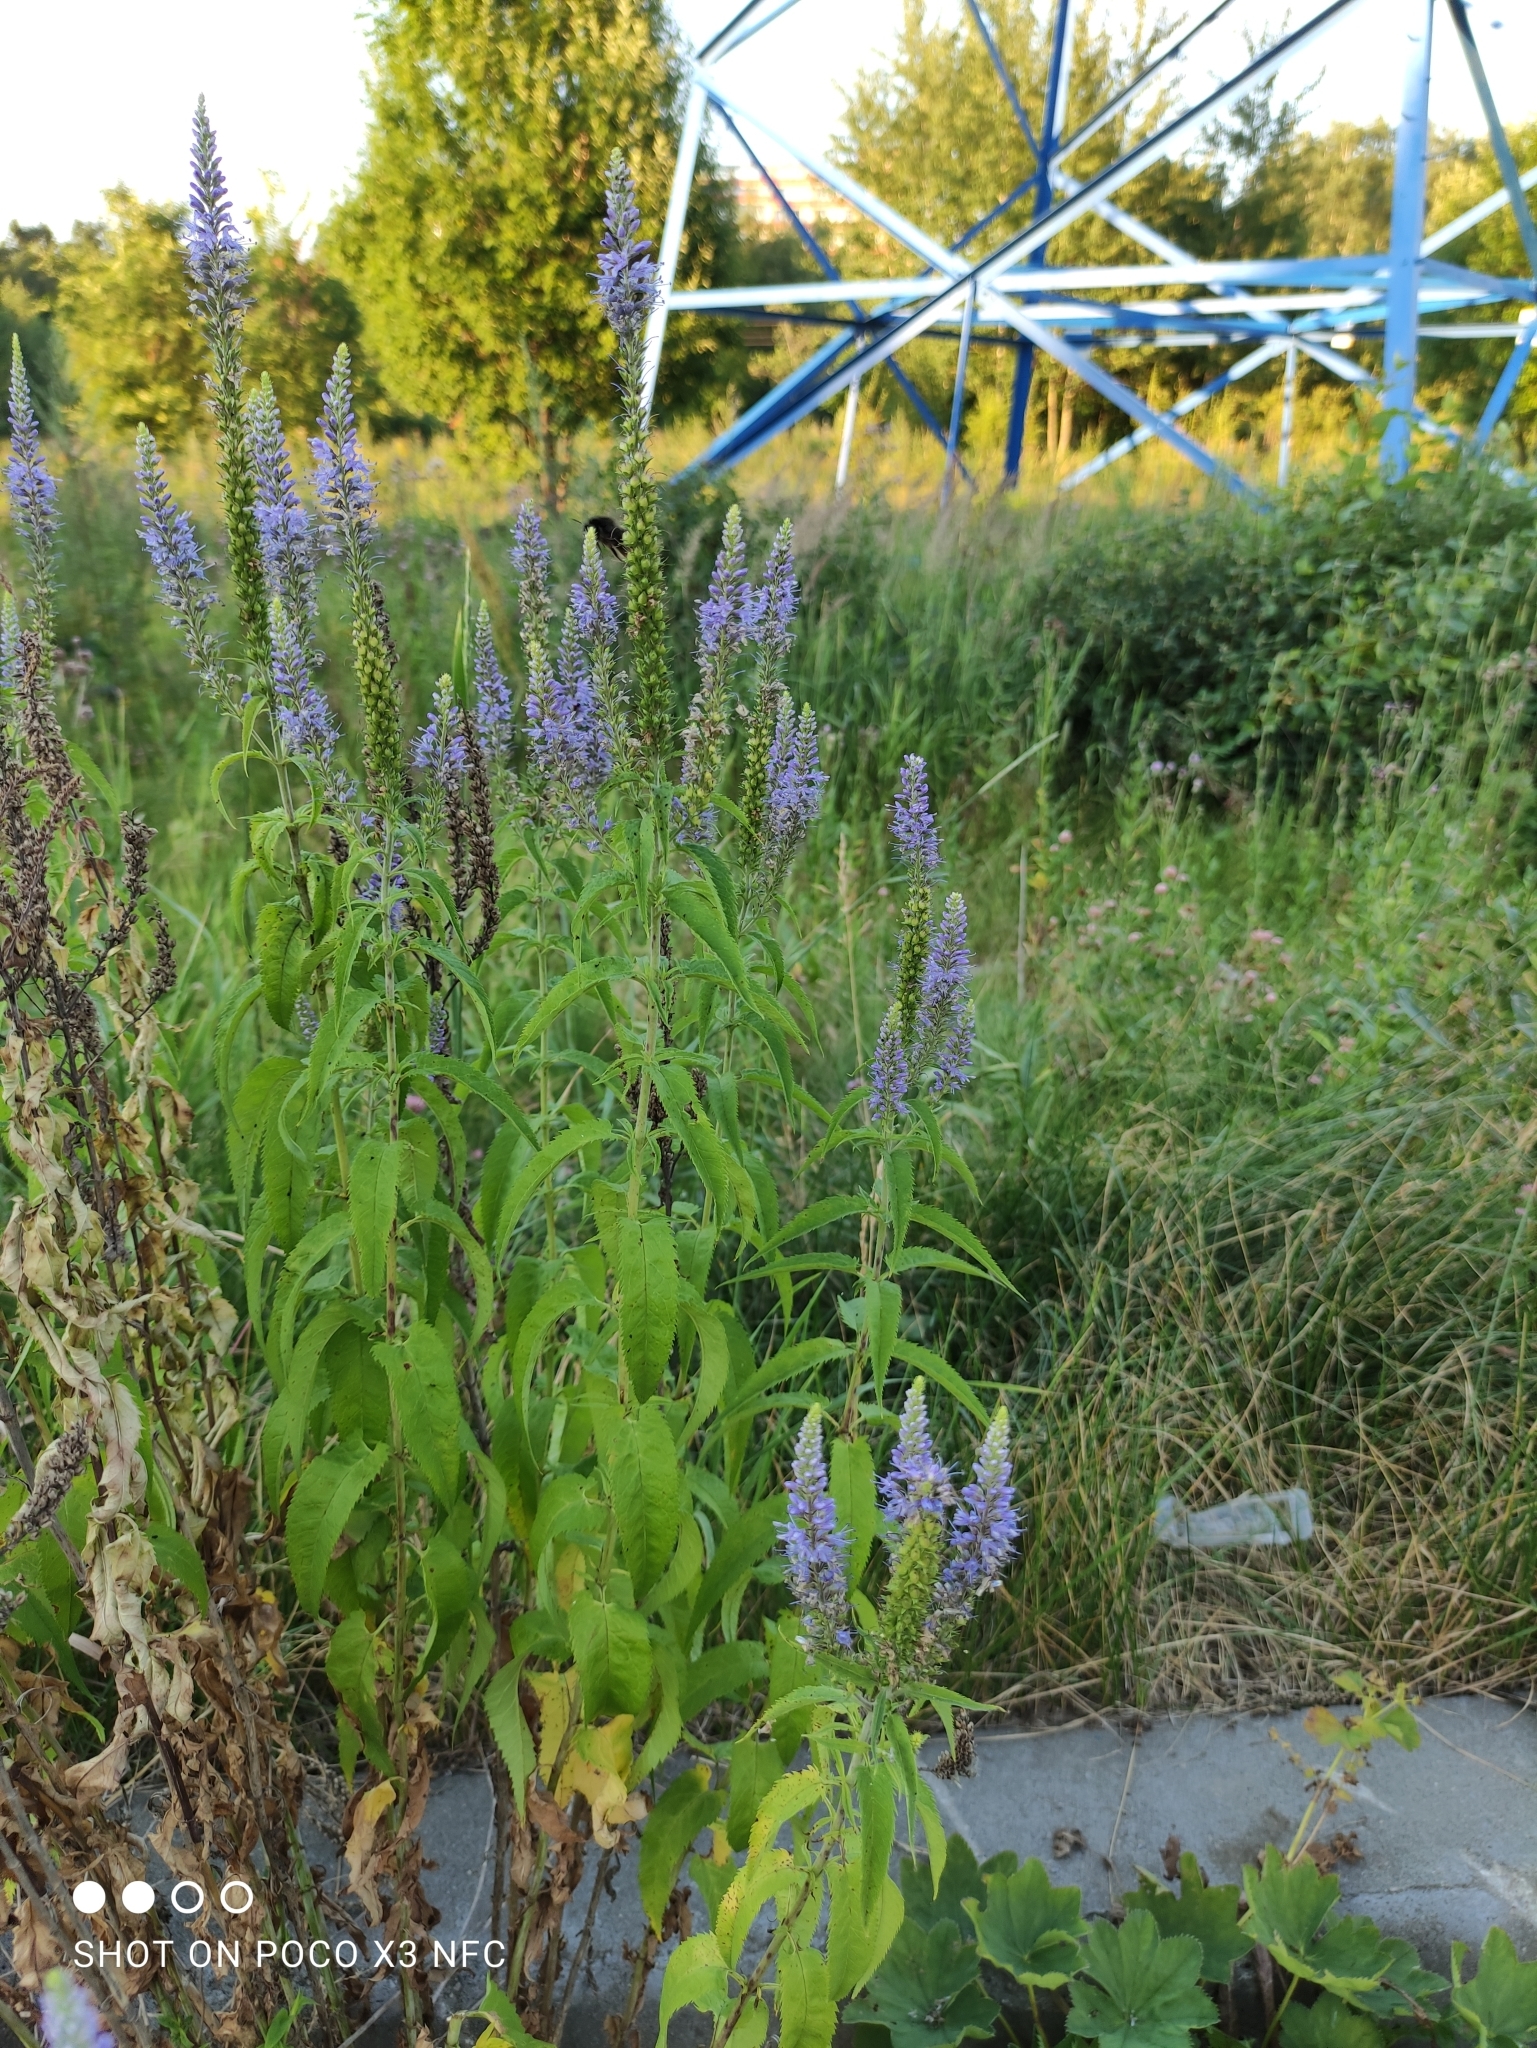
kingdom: Plantae
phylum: Tracheophyta
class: Magnoliopsida
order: Lamiales
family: Plantaginaceae
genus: Veronica
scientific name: Veronica longifolia
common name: Garden speedwell
